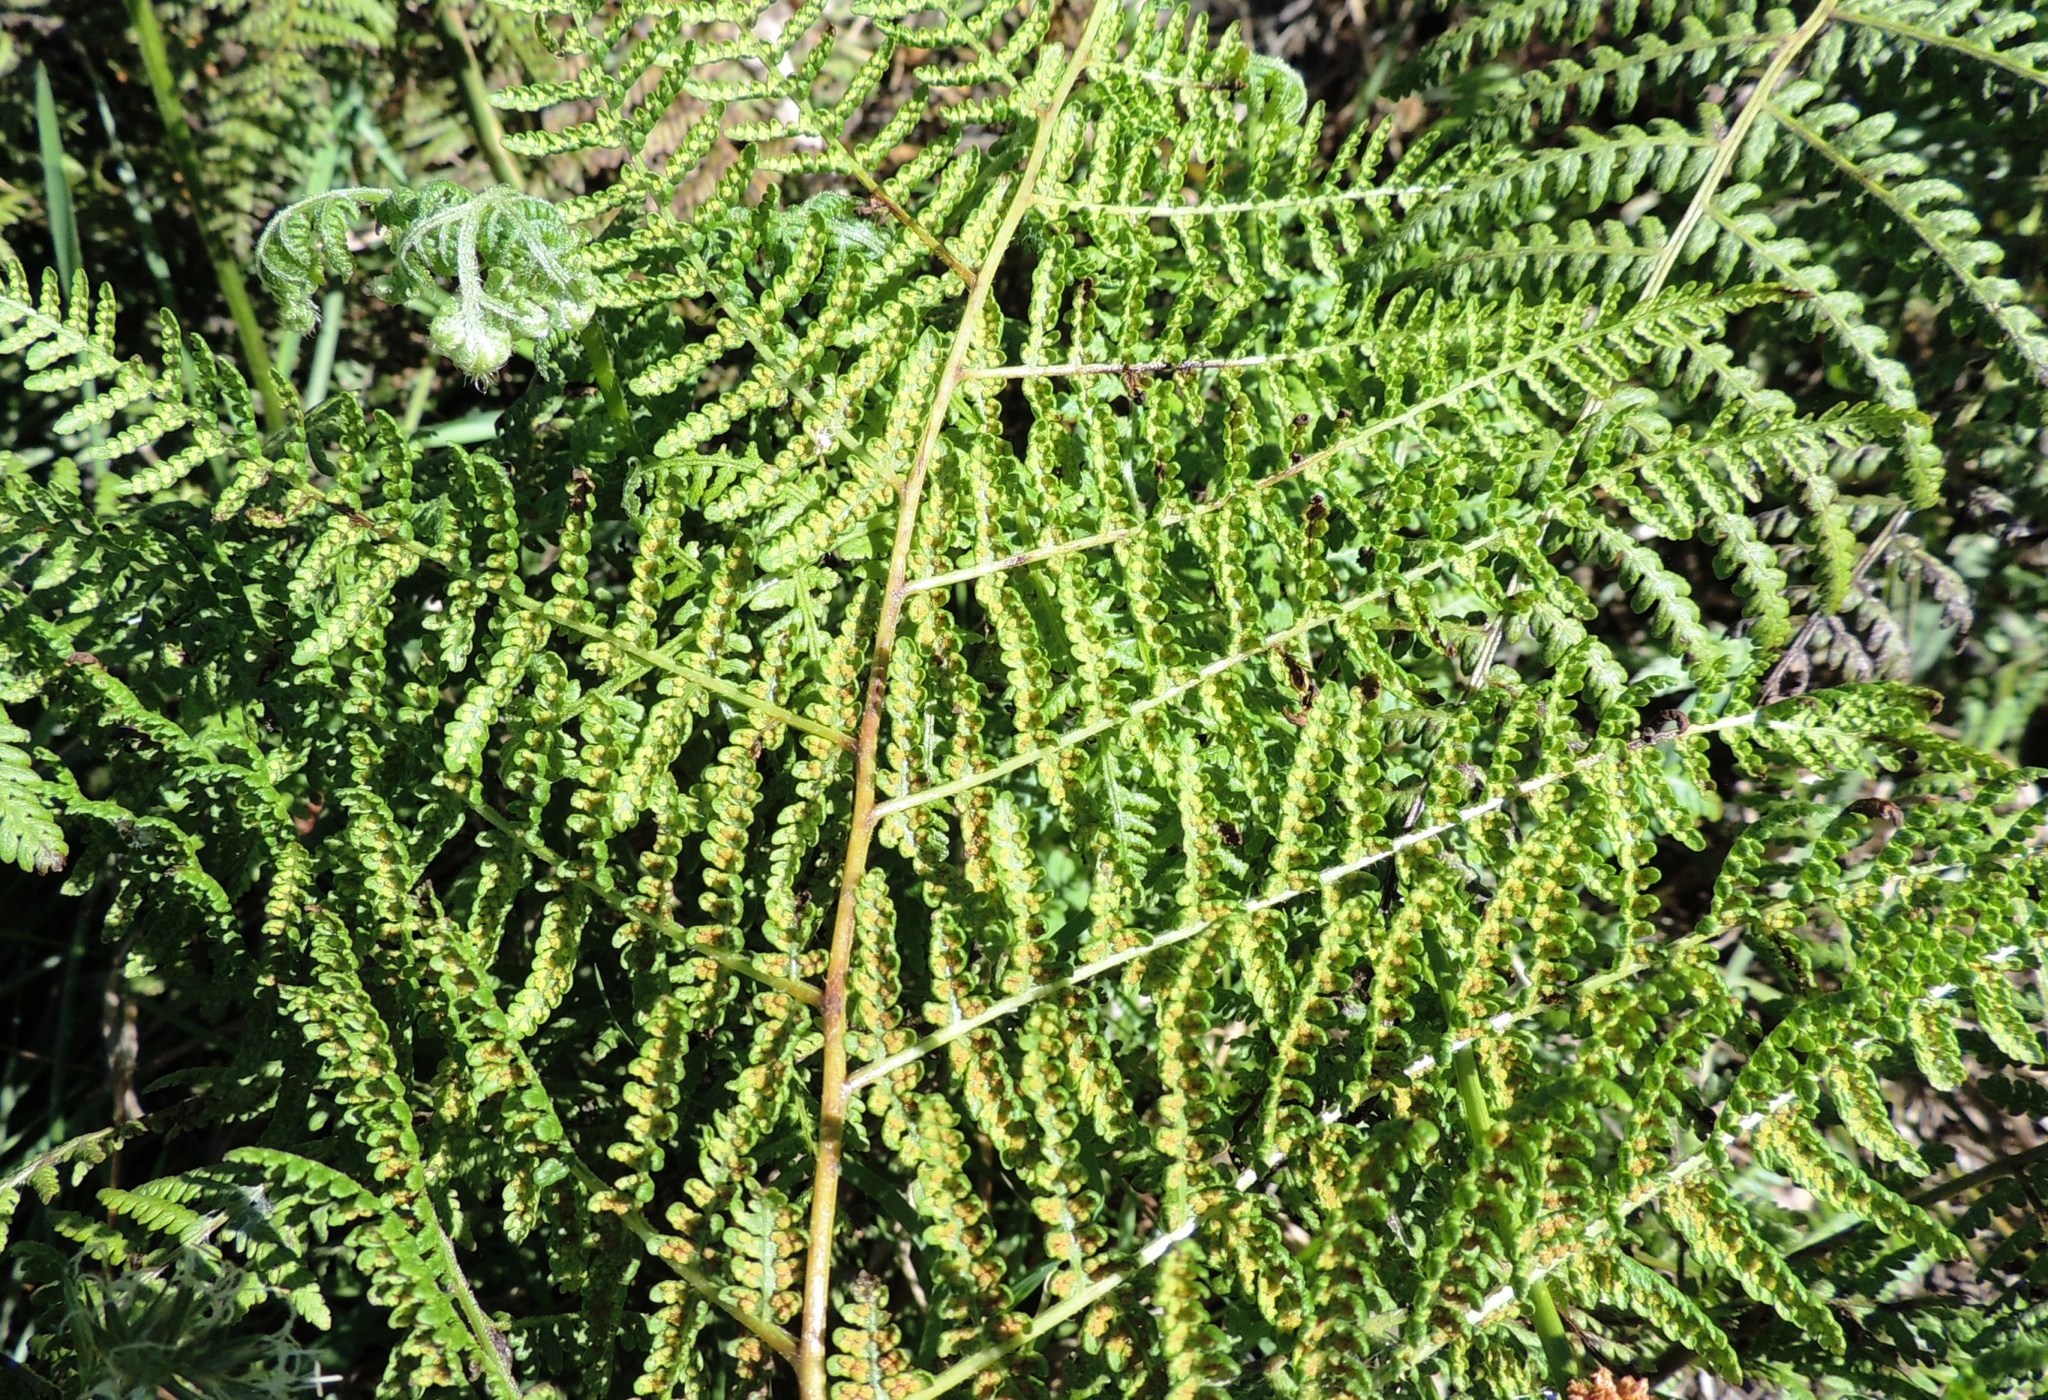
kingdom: Plantae
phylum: Tracheophyta
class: Polypodiopsida
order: Polypodiales
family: Dennstaedtiaceae
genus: Hypolepis
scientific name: Hypolepis ambigua
